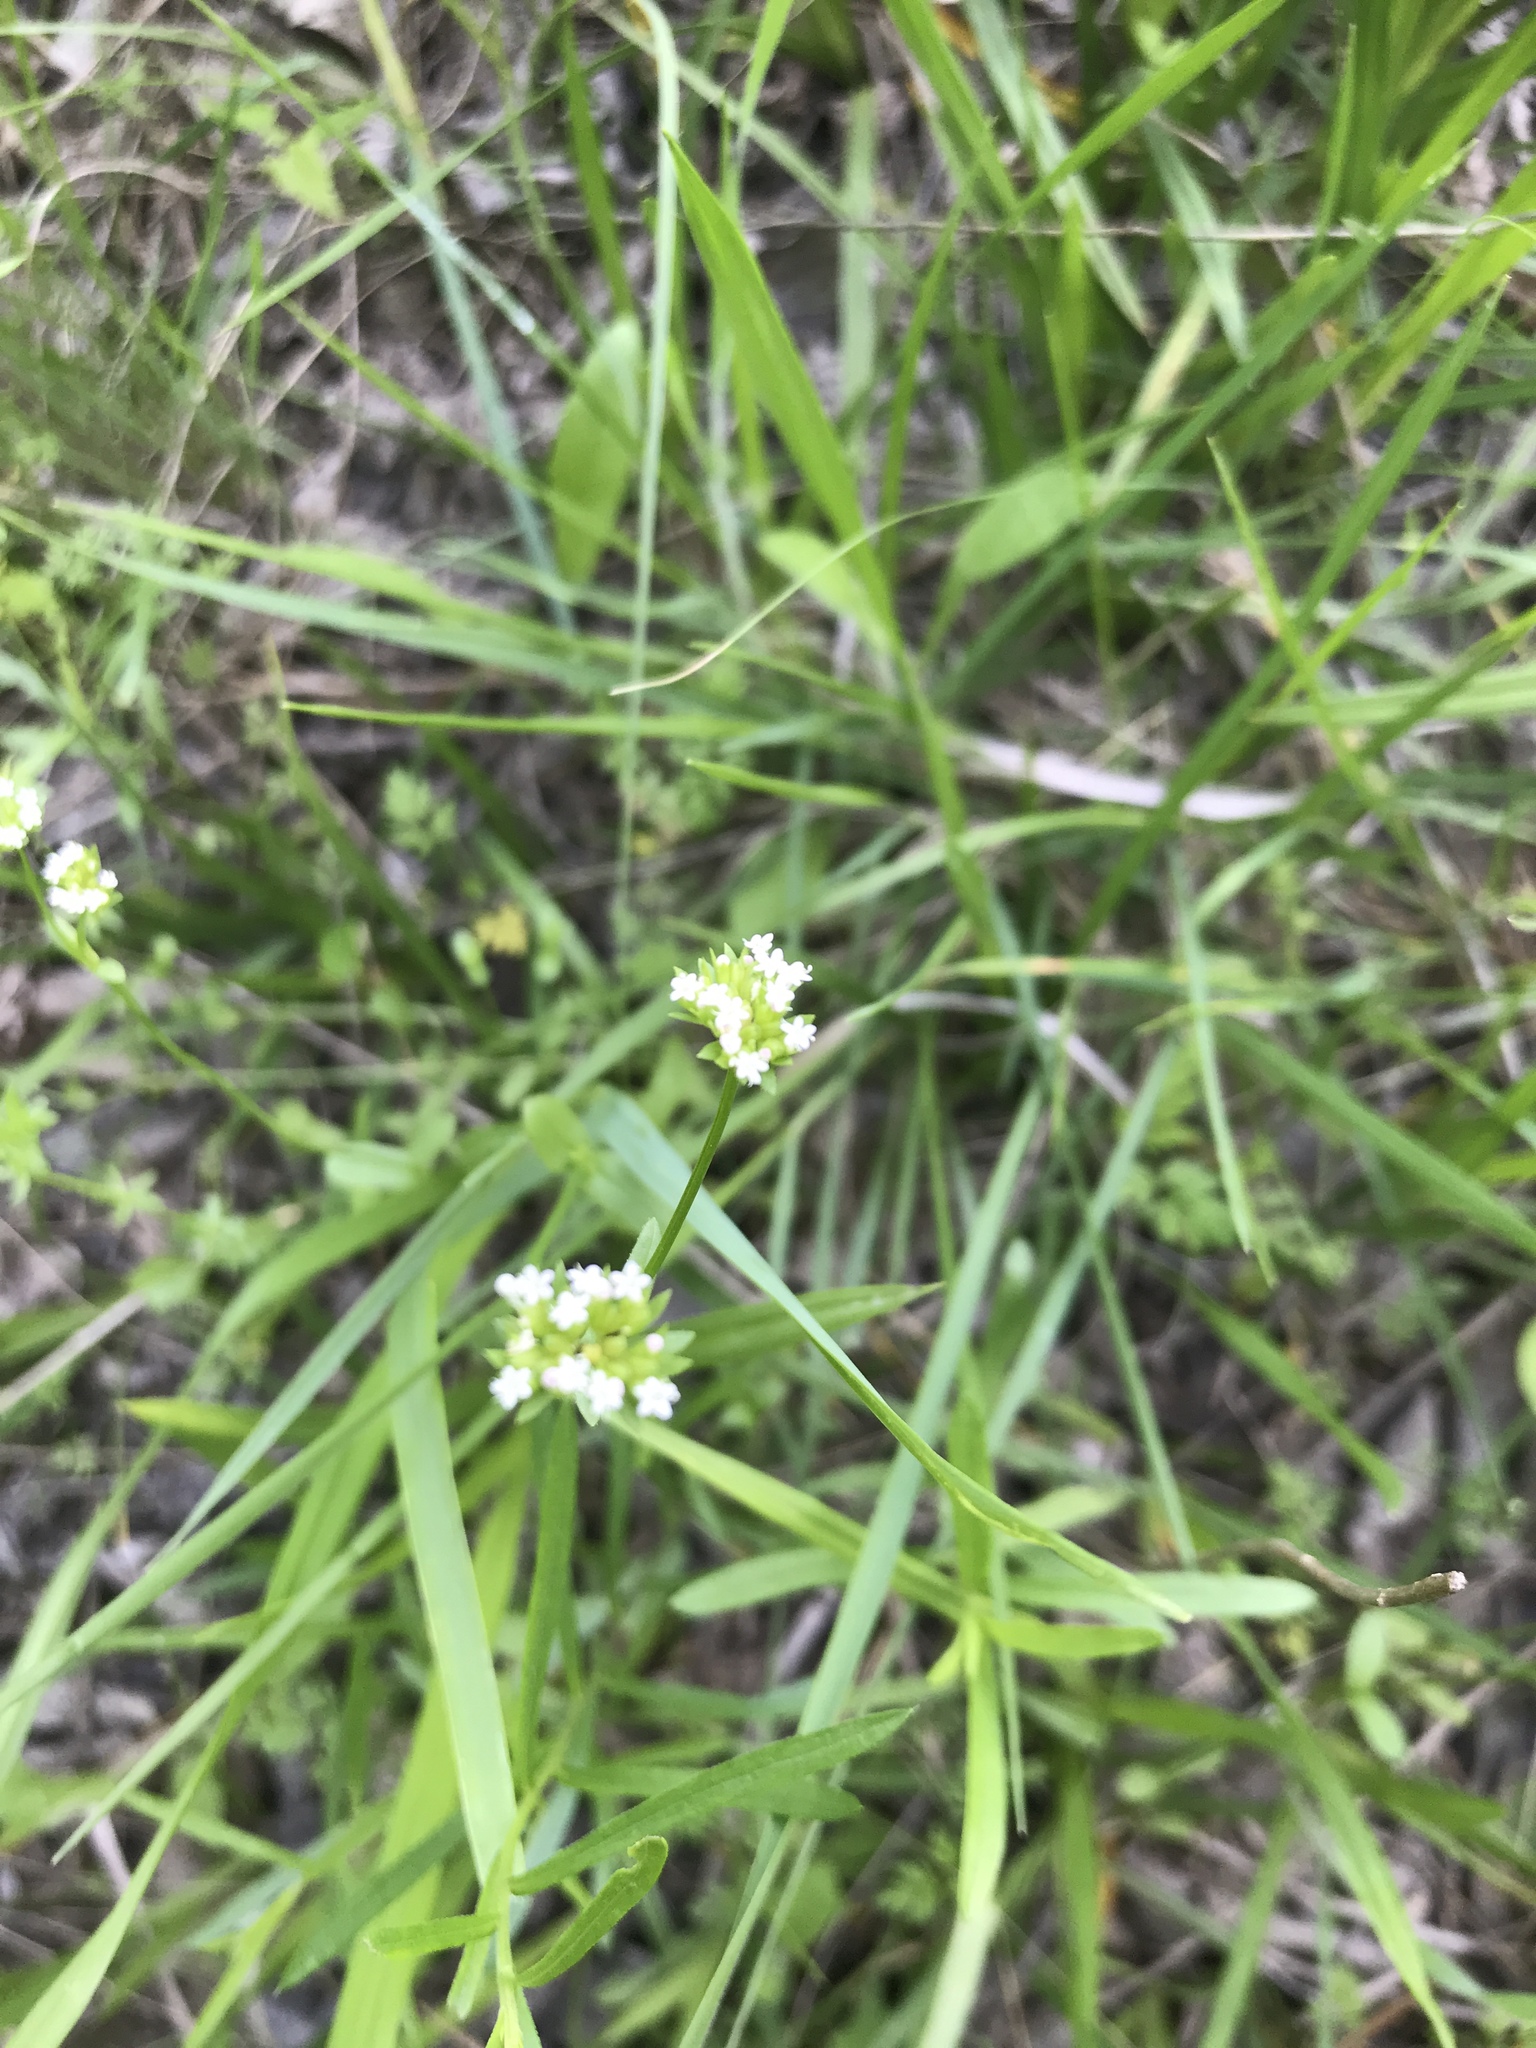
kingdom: Plantae
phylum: Tracheophyta
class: Magnoliopsida
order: Dipsacales
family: Caprifoliaceae
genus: Valerianella
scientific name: Valerianella radiata
